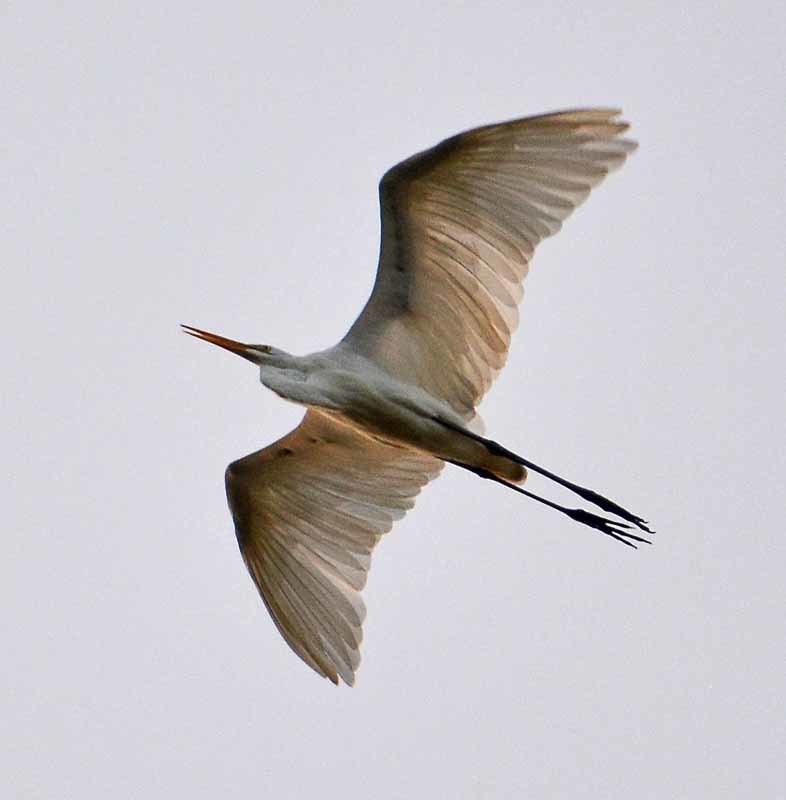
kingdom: Animalia
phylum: Chordata
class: Aves
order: Pelecaniformes
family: Ardeidae
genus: Ardea
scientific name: Ardea alba
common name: Great egret
